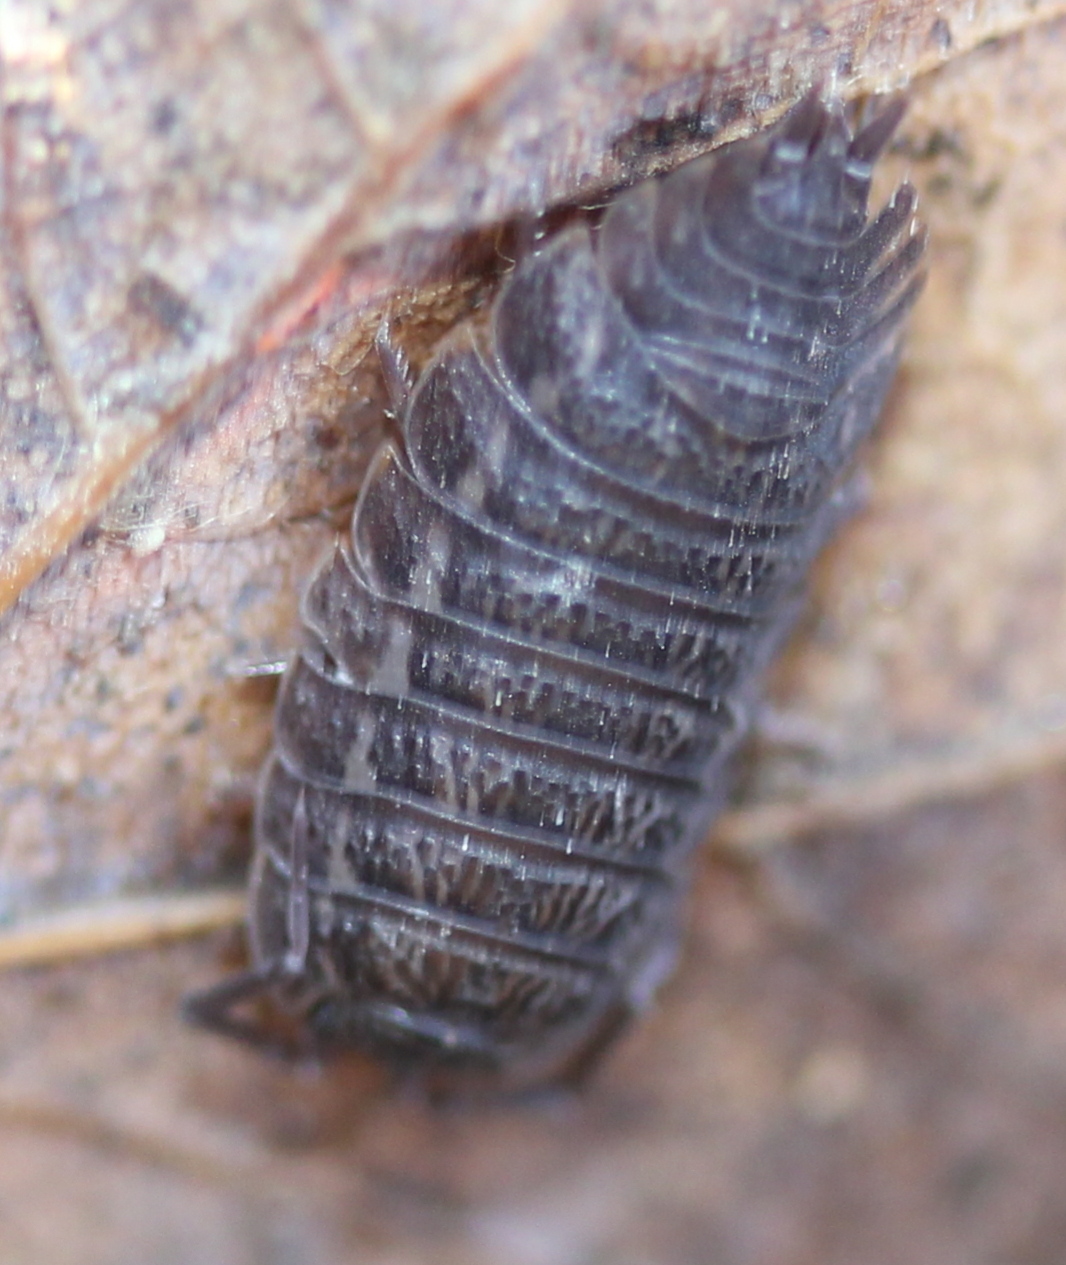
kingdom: Animalia
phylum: Arthropoda
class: Malacostraca
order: Isopoda
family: Trachelipodidae
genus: Trachelipus
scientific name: Trachelipus rathkii
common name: Isopod
